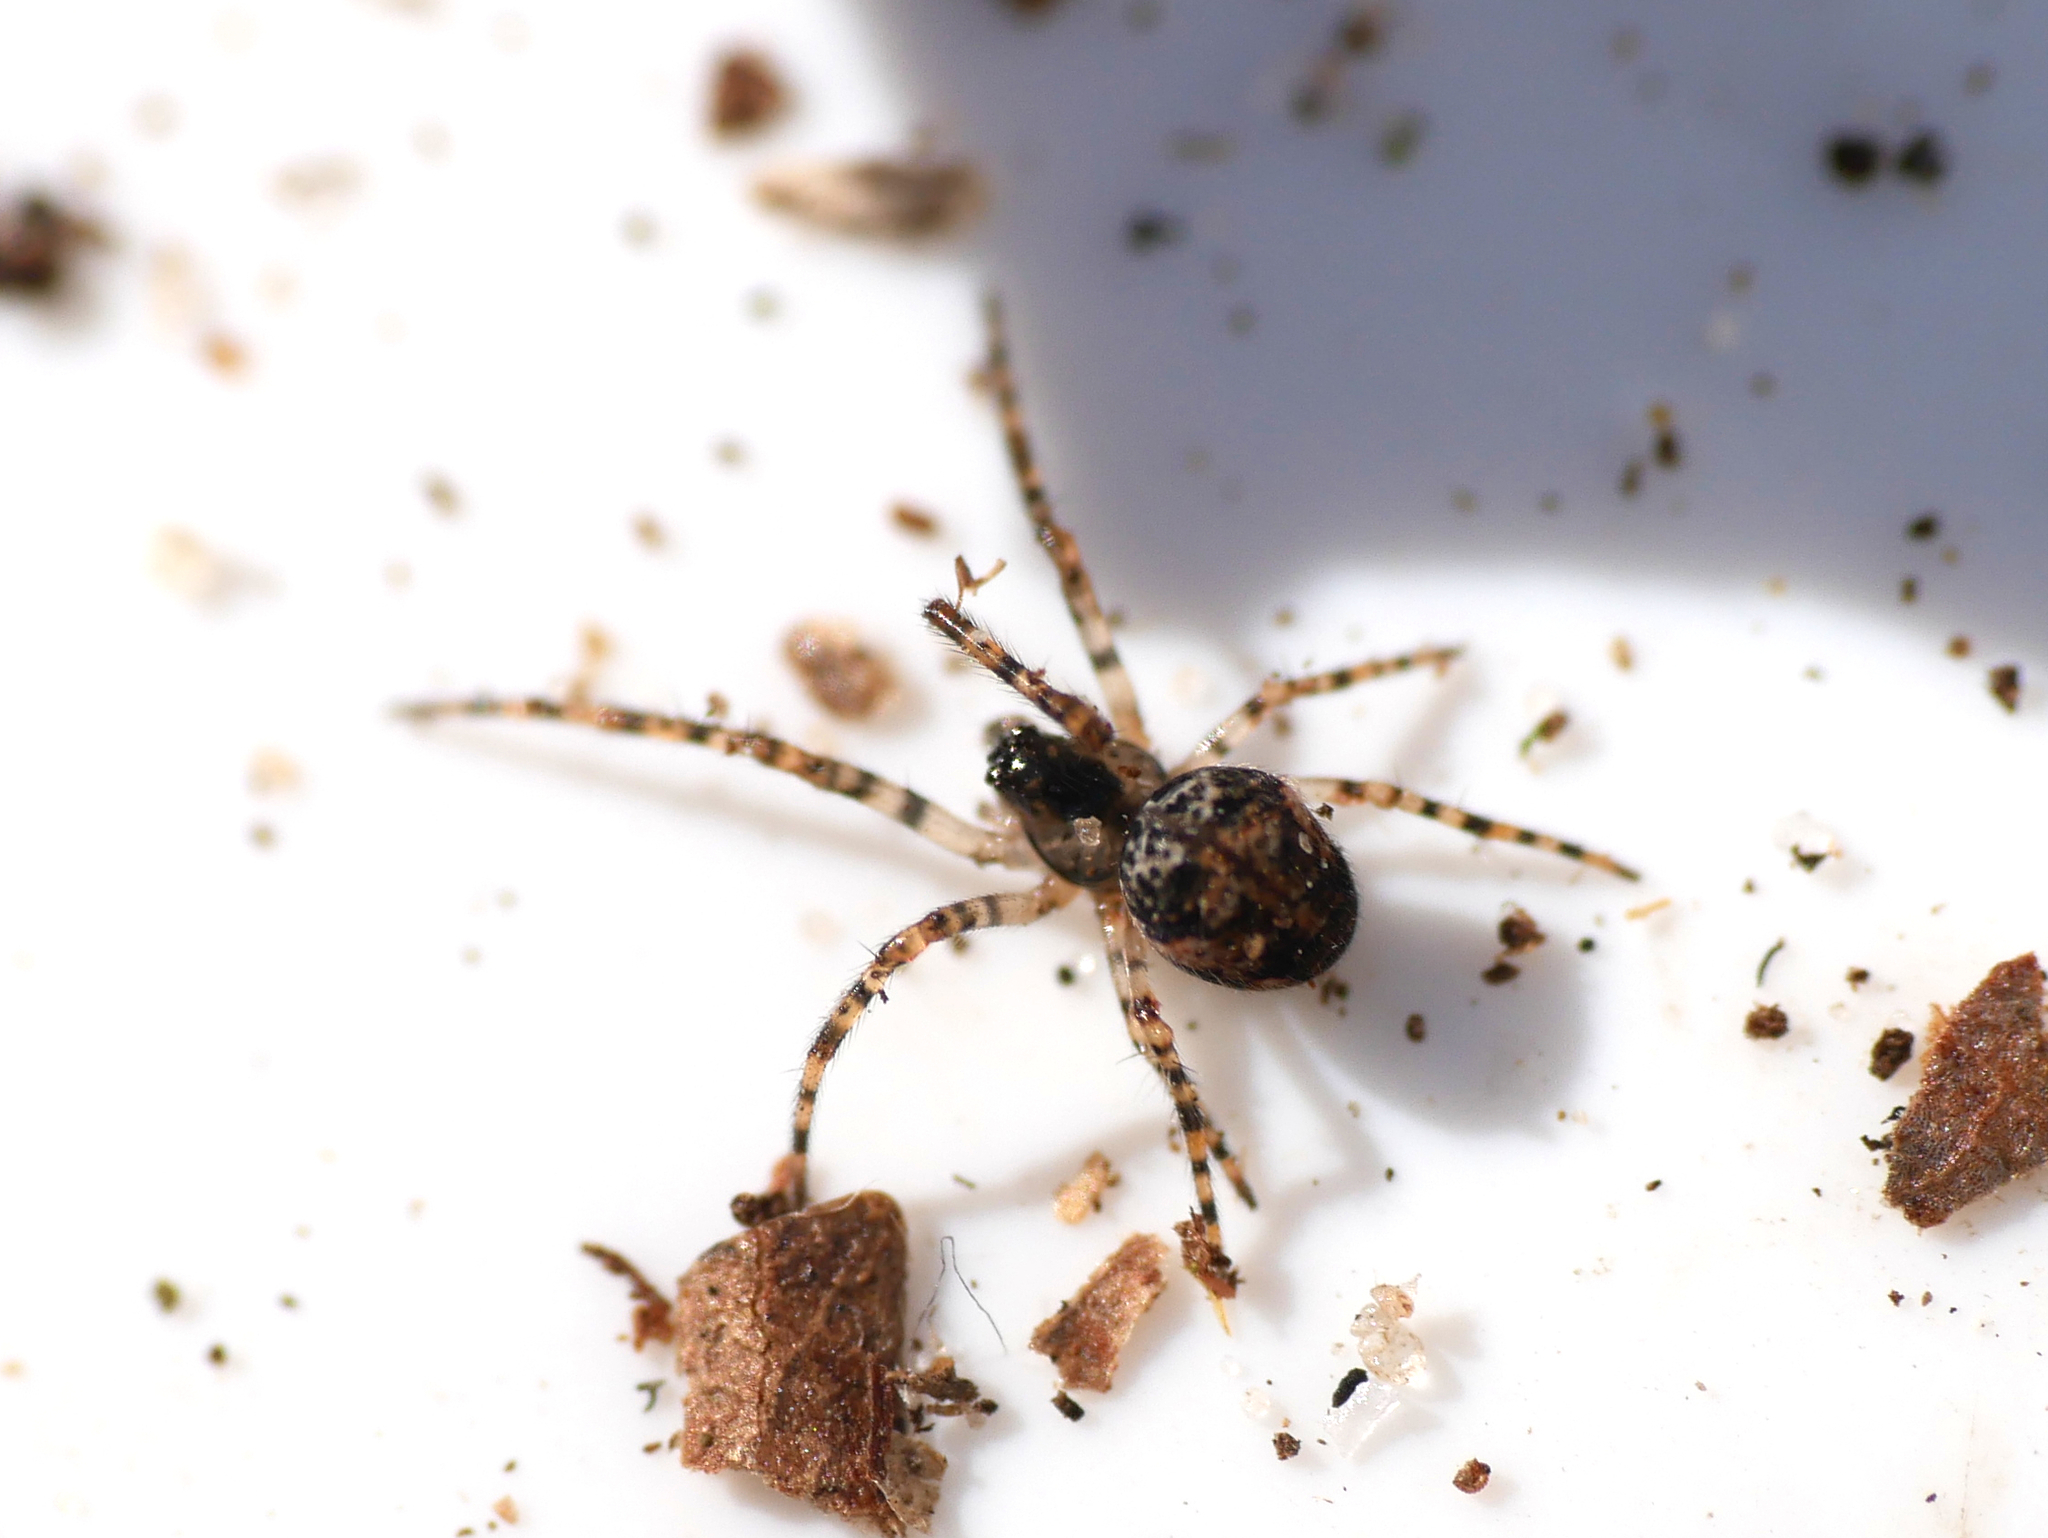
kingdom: Animalia
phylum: Arthropoda
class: Arachnida
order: Araneae
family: Tetragnathidae
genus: Metellina
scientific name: Metellina merianae
